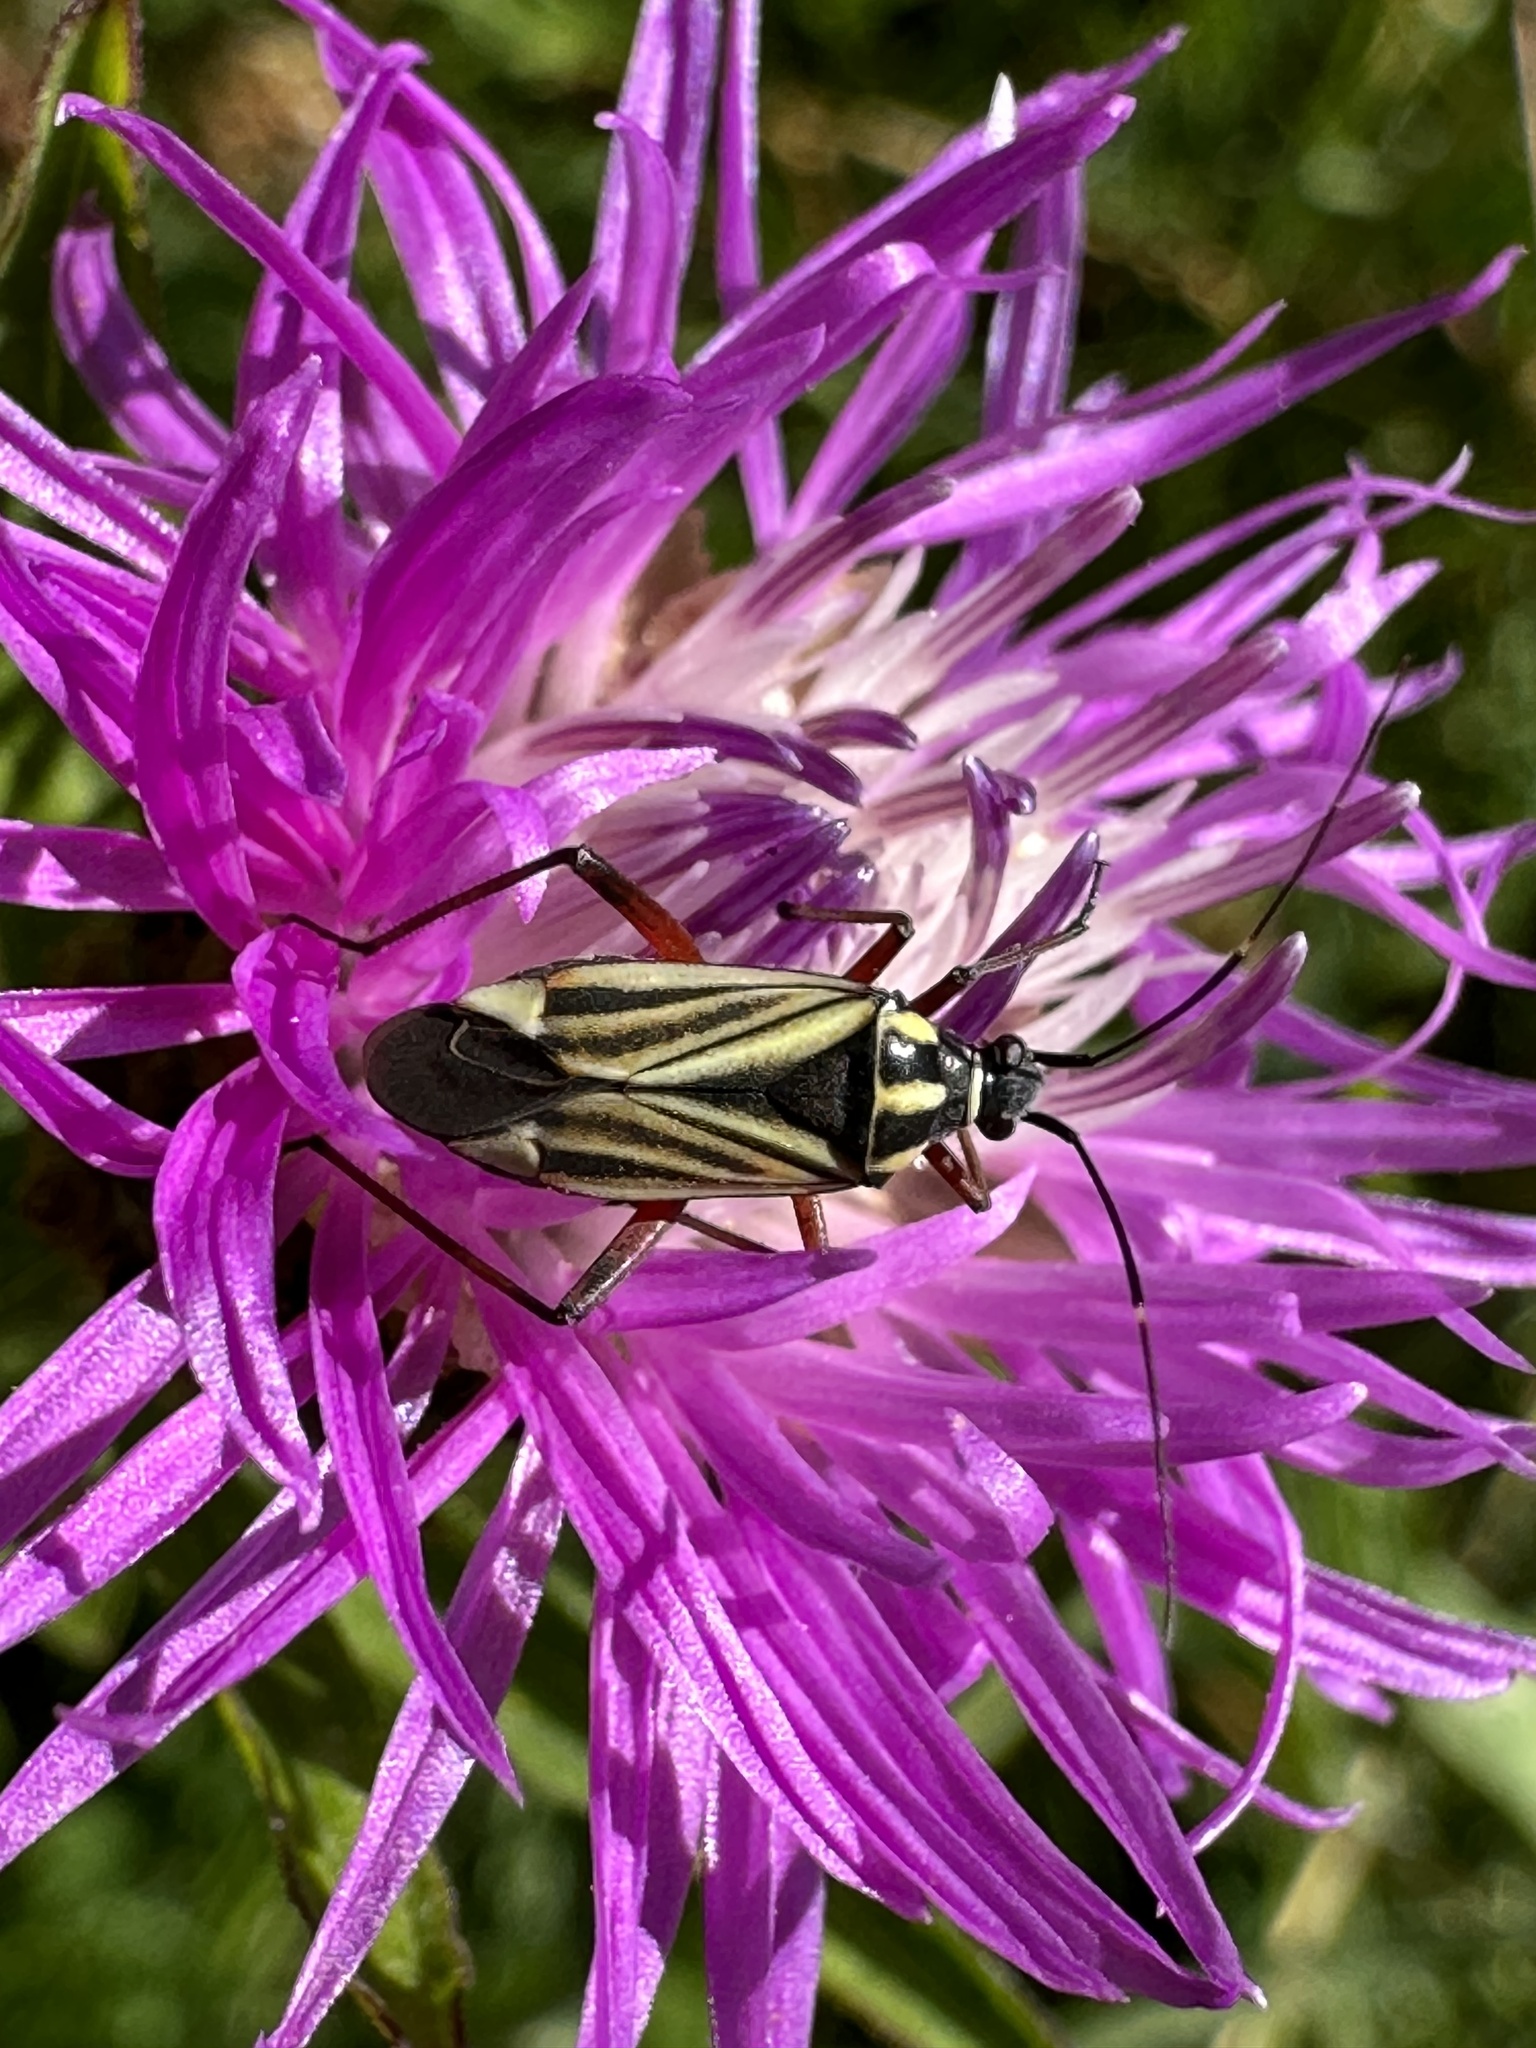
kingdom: Animalia
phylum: Arthropoda
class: Insecta
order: Hemiptera
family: Miridae
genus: Hadrodemus
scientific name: Hadrodemus m-flavum
